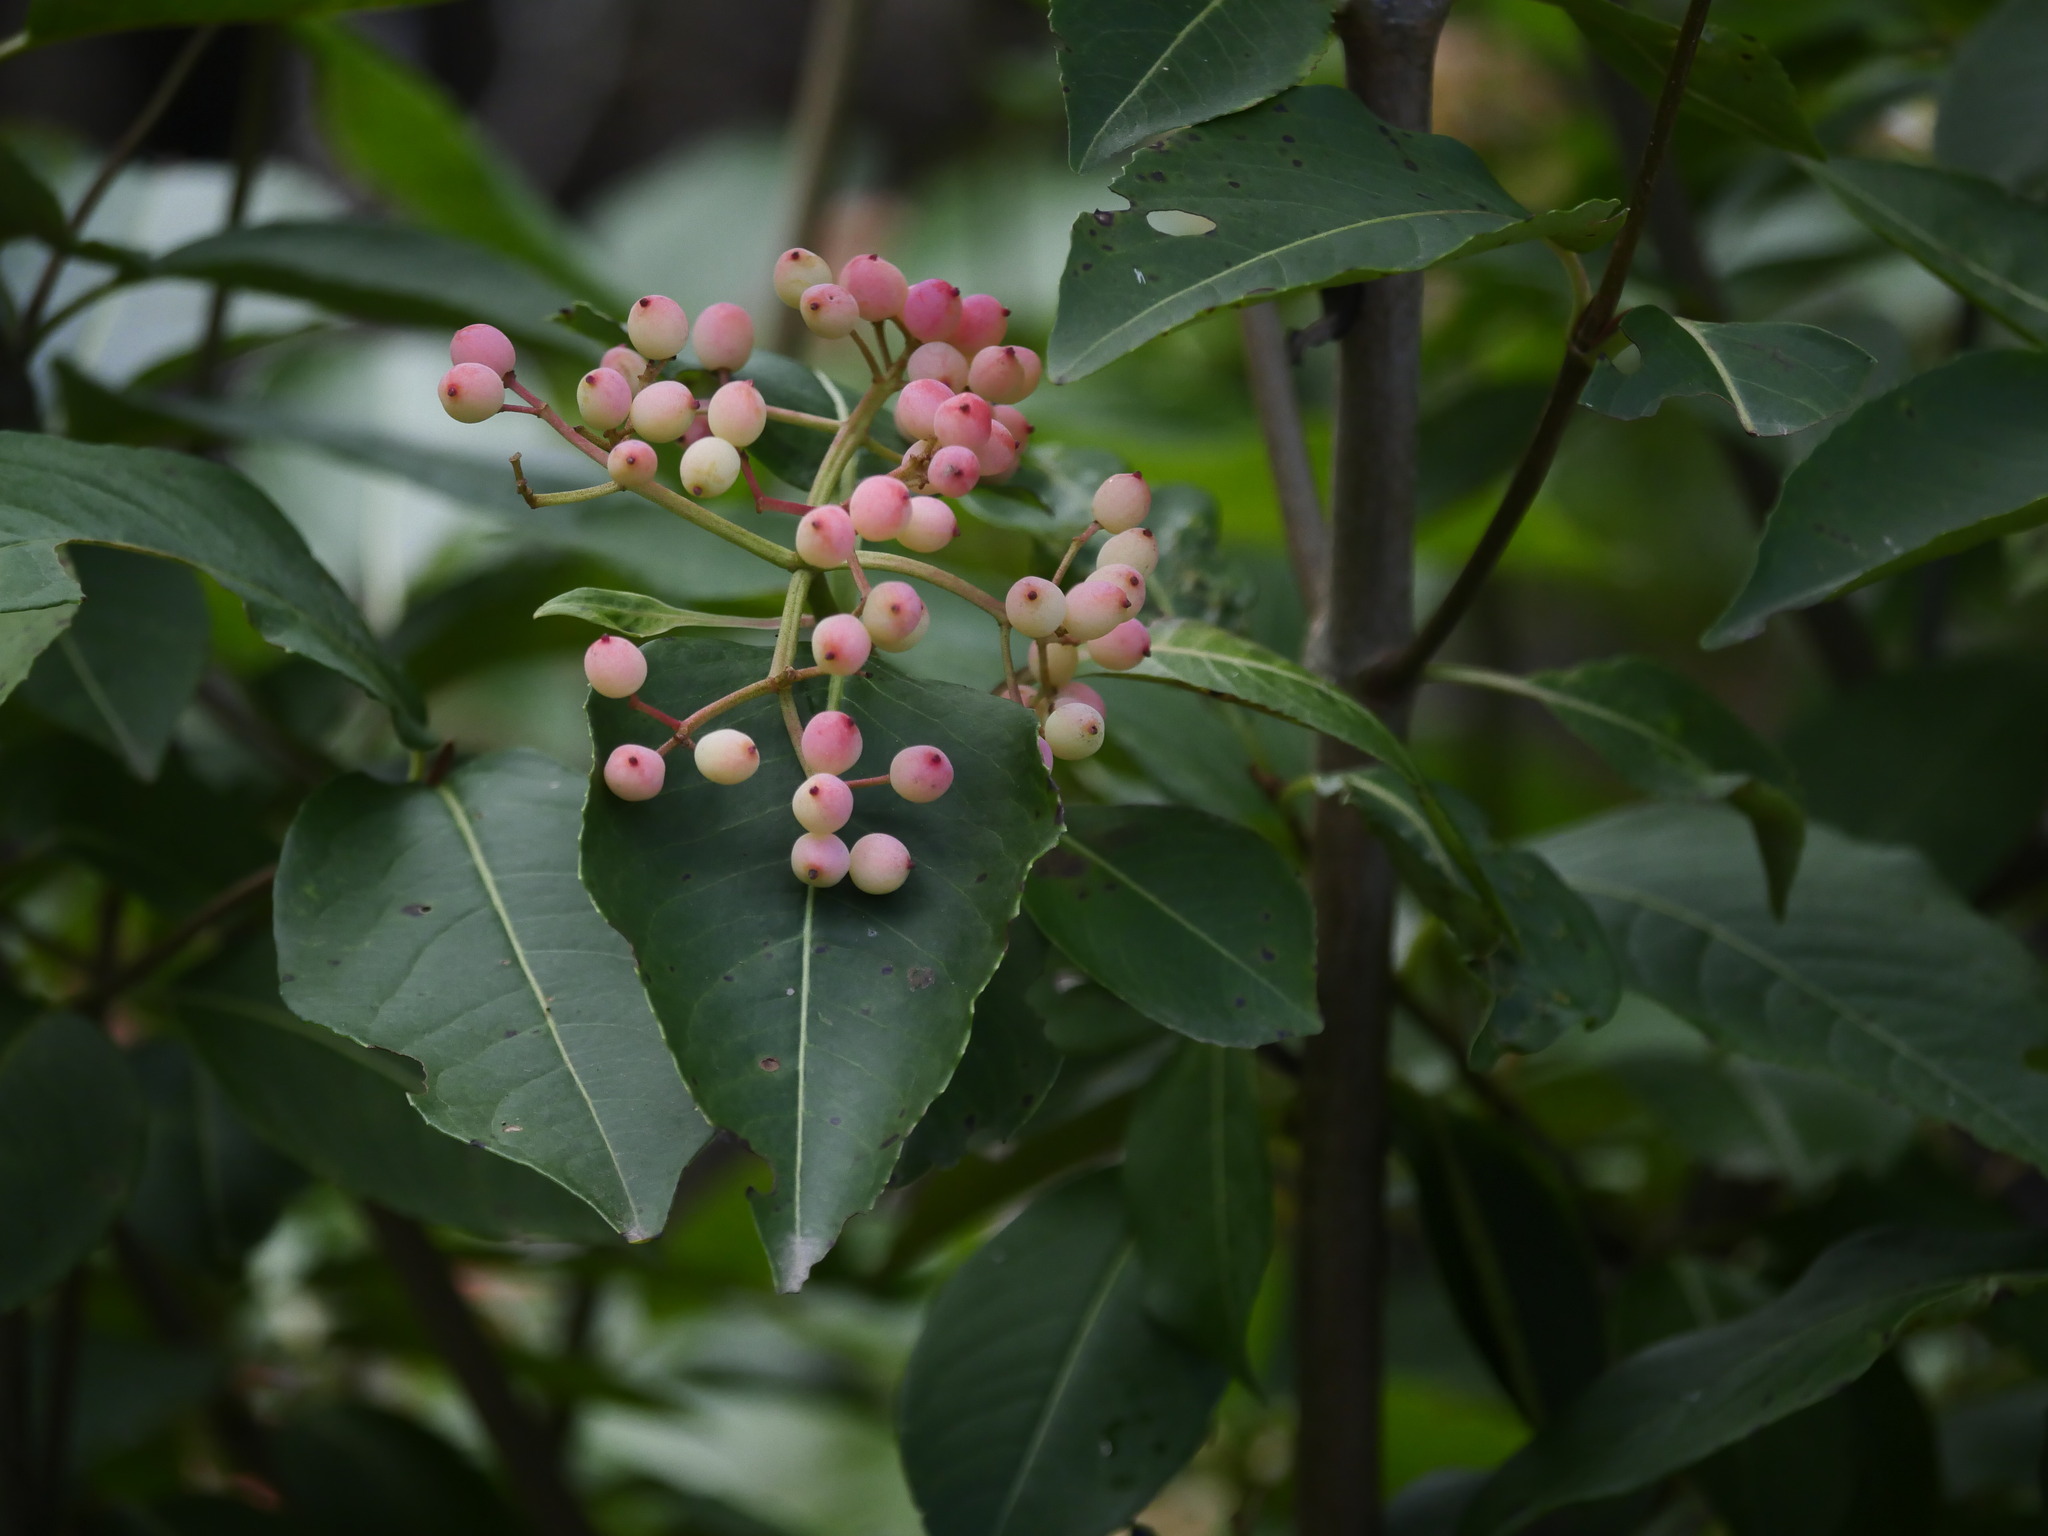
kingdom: Plantae
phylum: Tracheophyta
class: Magnoliopsida
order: Dipsacales
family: Viburnaceae
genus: Viburnum
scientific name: Viburnum cassinoides
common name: Swamp haw
